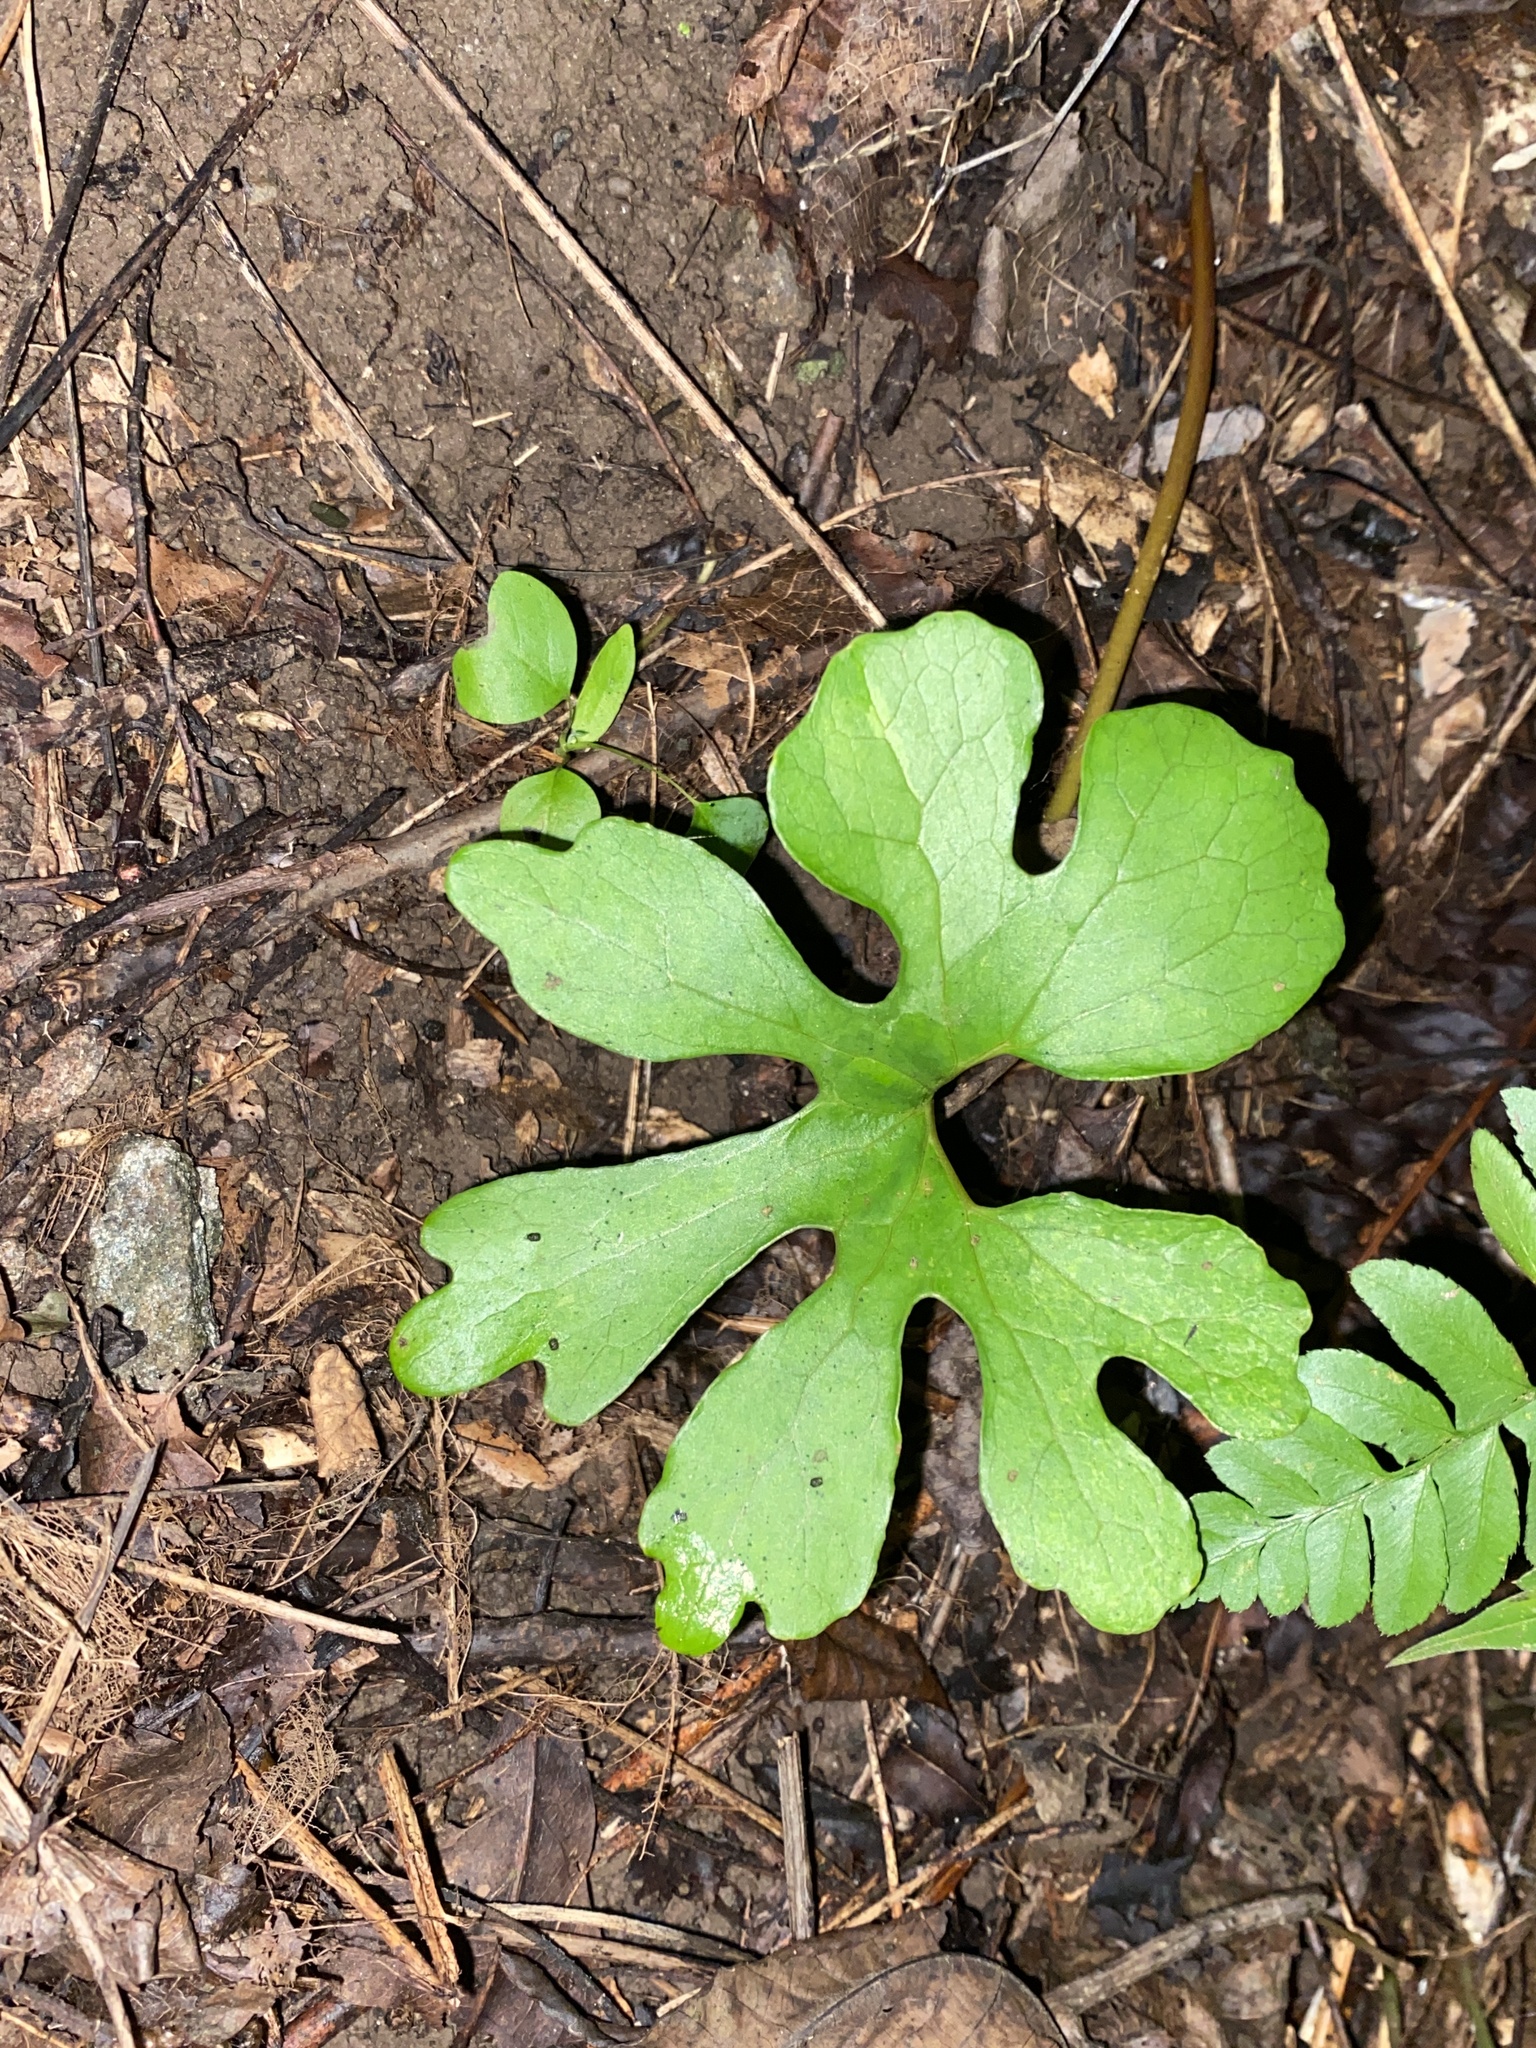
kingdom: Plantae
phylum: Tracheophyta
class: Magnoliopsida
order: Ranunculales
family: Papaveraceae
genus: Sanguinaria
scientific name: Sanguinaria canadensis
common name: Bloodroot
